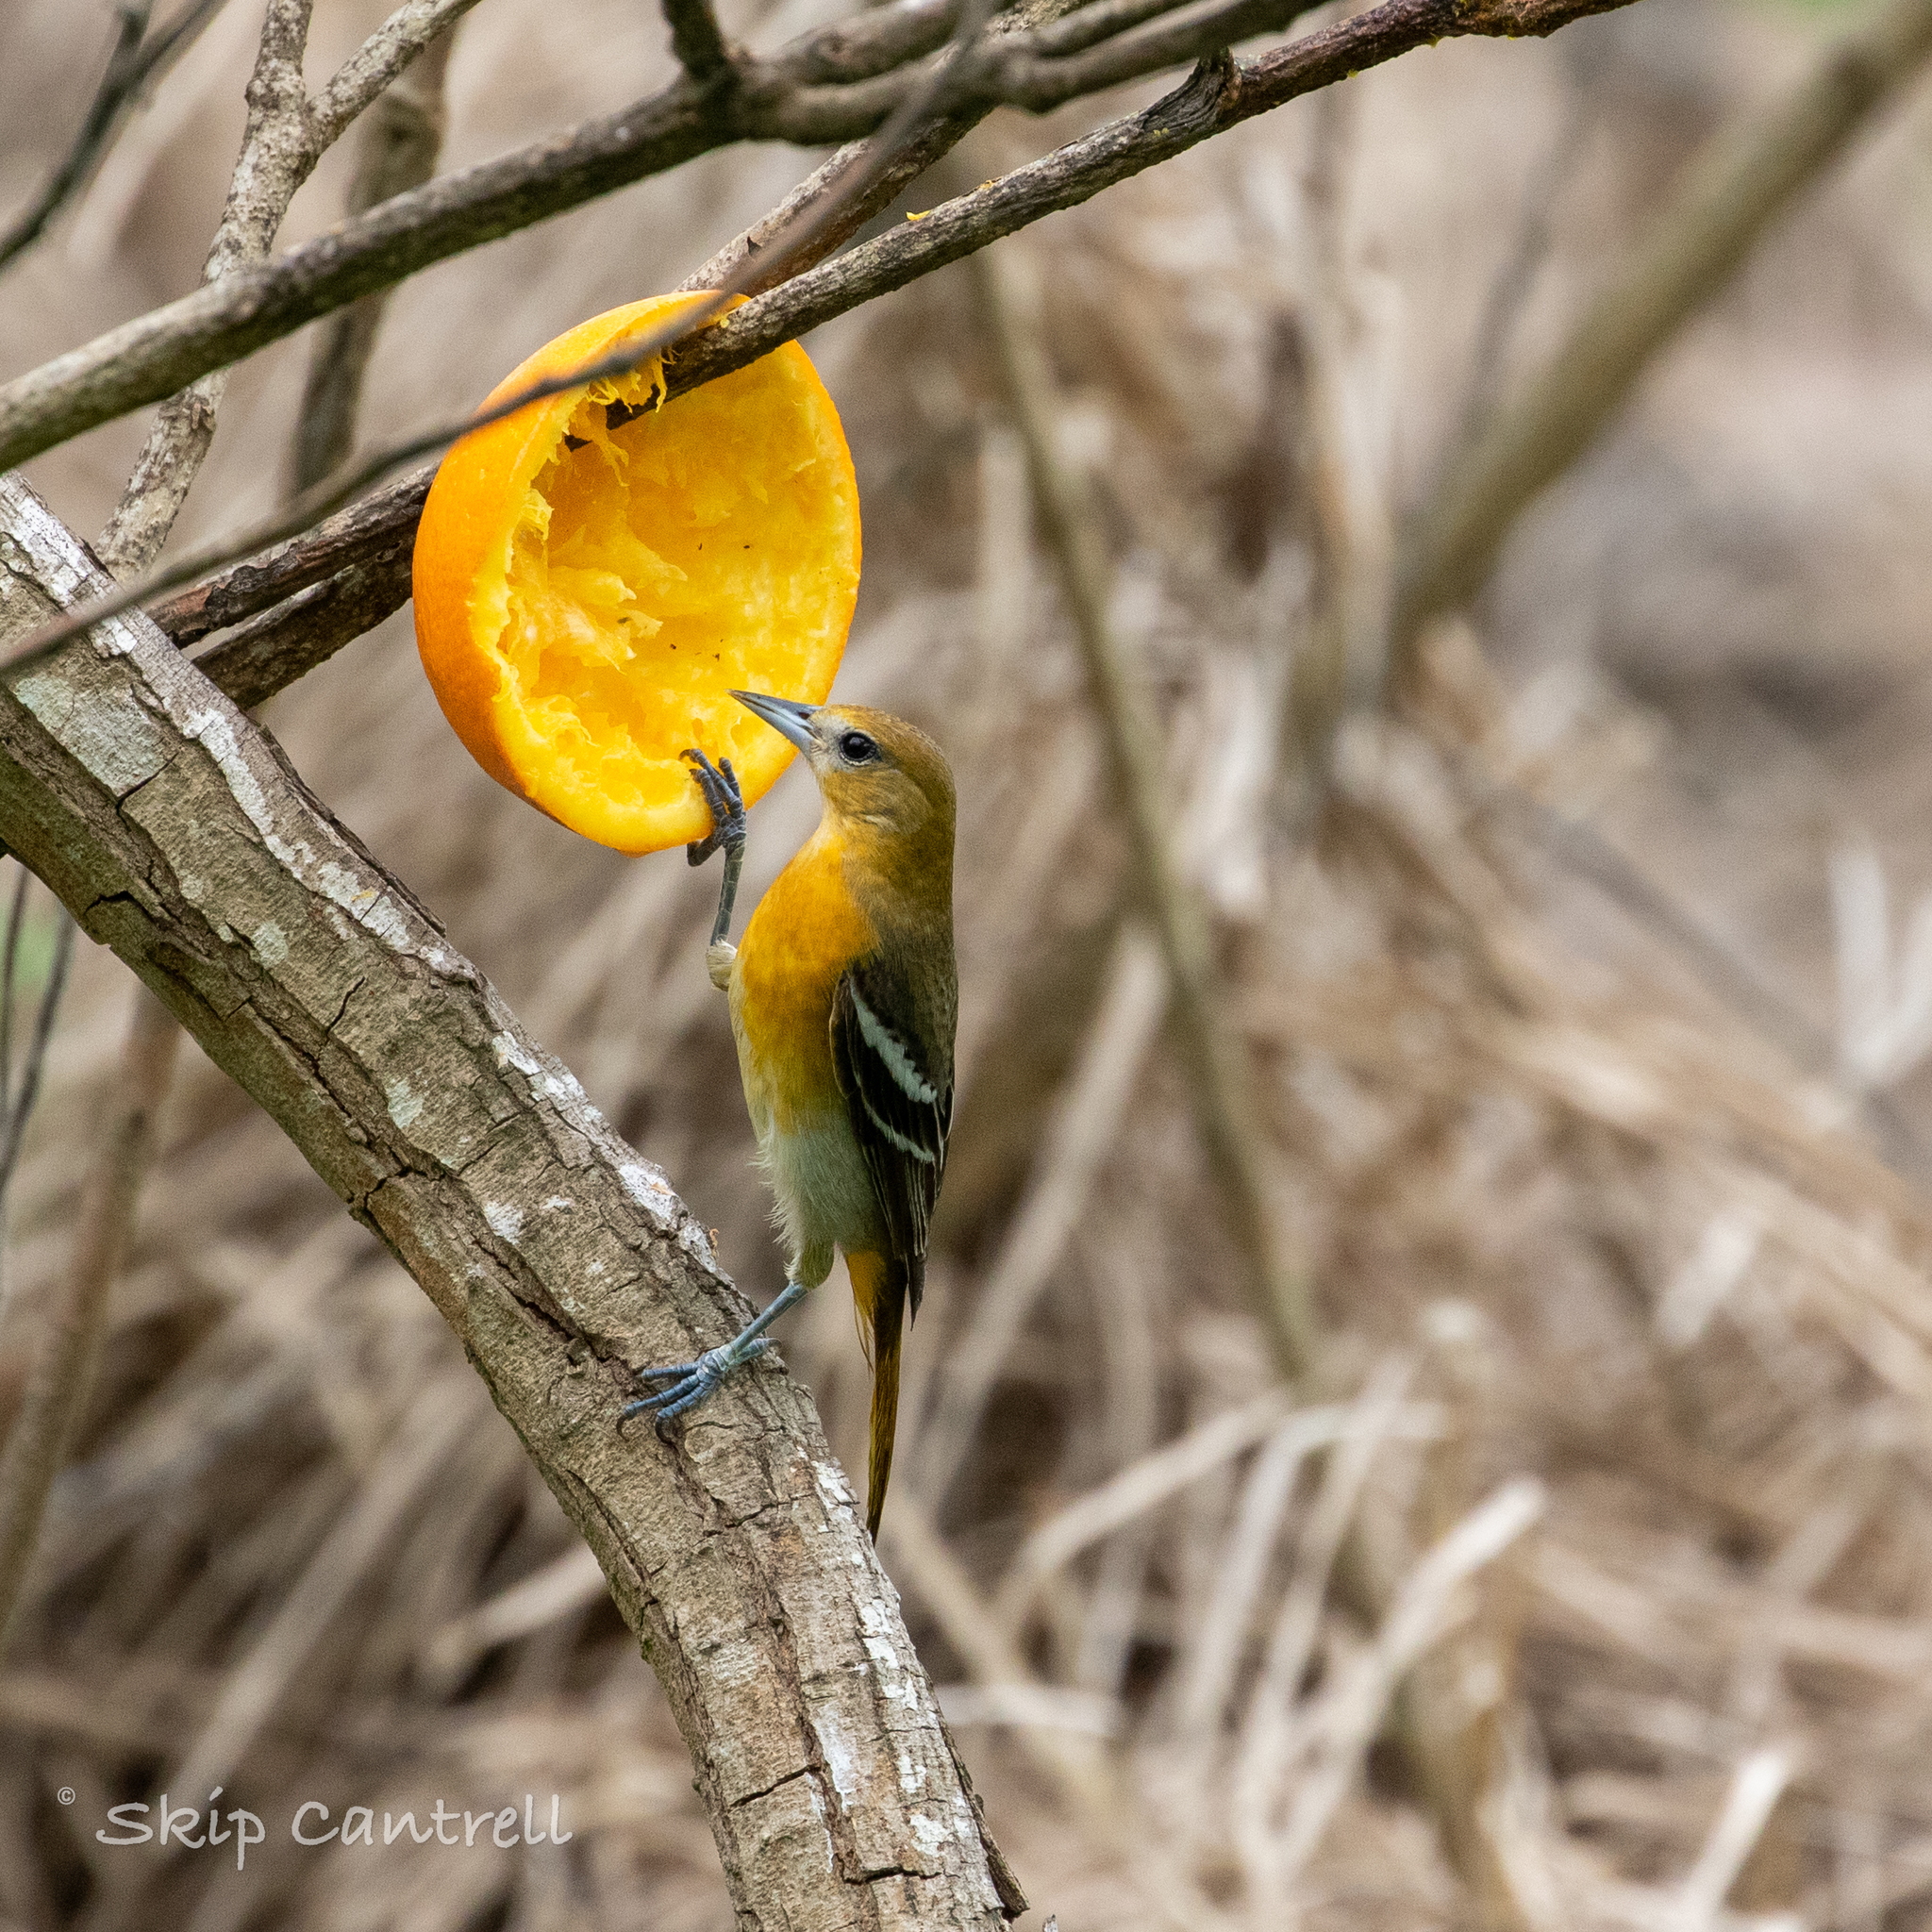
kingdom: Animalia
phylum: Chordata
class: Aves
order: Passeriformes
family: Icteridae
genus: Icterus
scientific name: Icterus galbula
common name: Baltimore oriole
